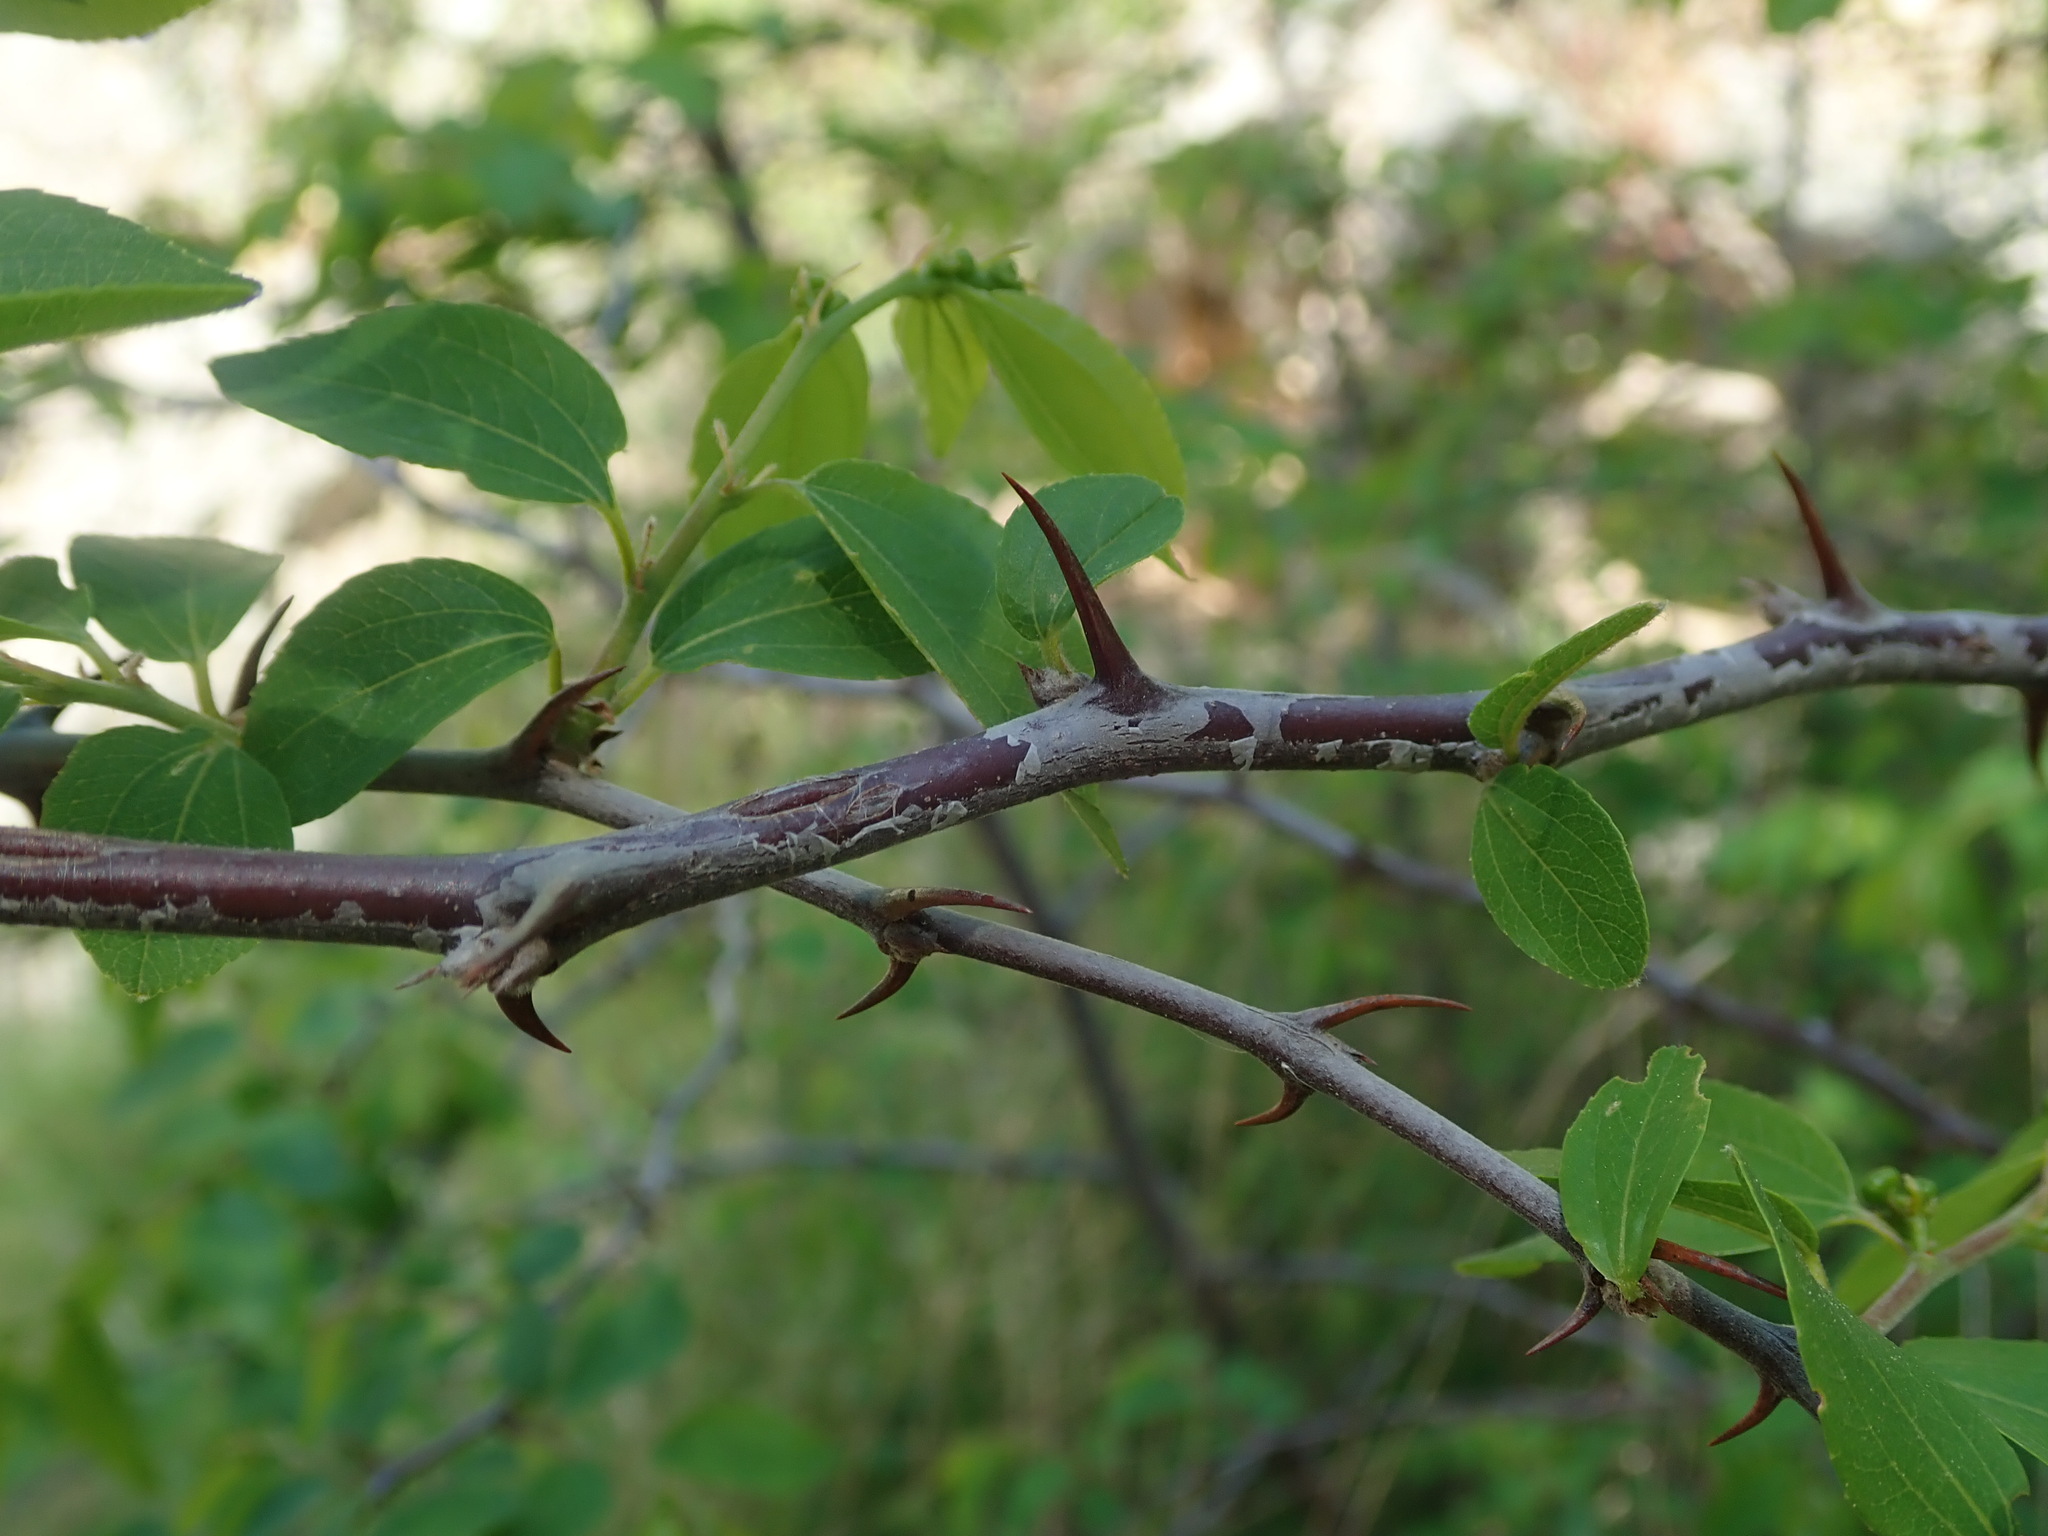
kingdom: Plantae
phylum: Tracheophyta
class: Magnoliopsida
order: Rosales
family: Rhamnaceae
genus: Paliurus
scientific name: Paliurus spina-christi
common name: Jeruselem thorn
